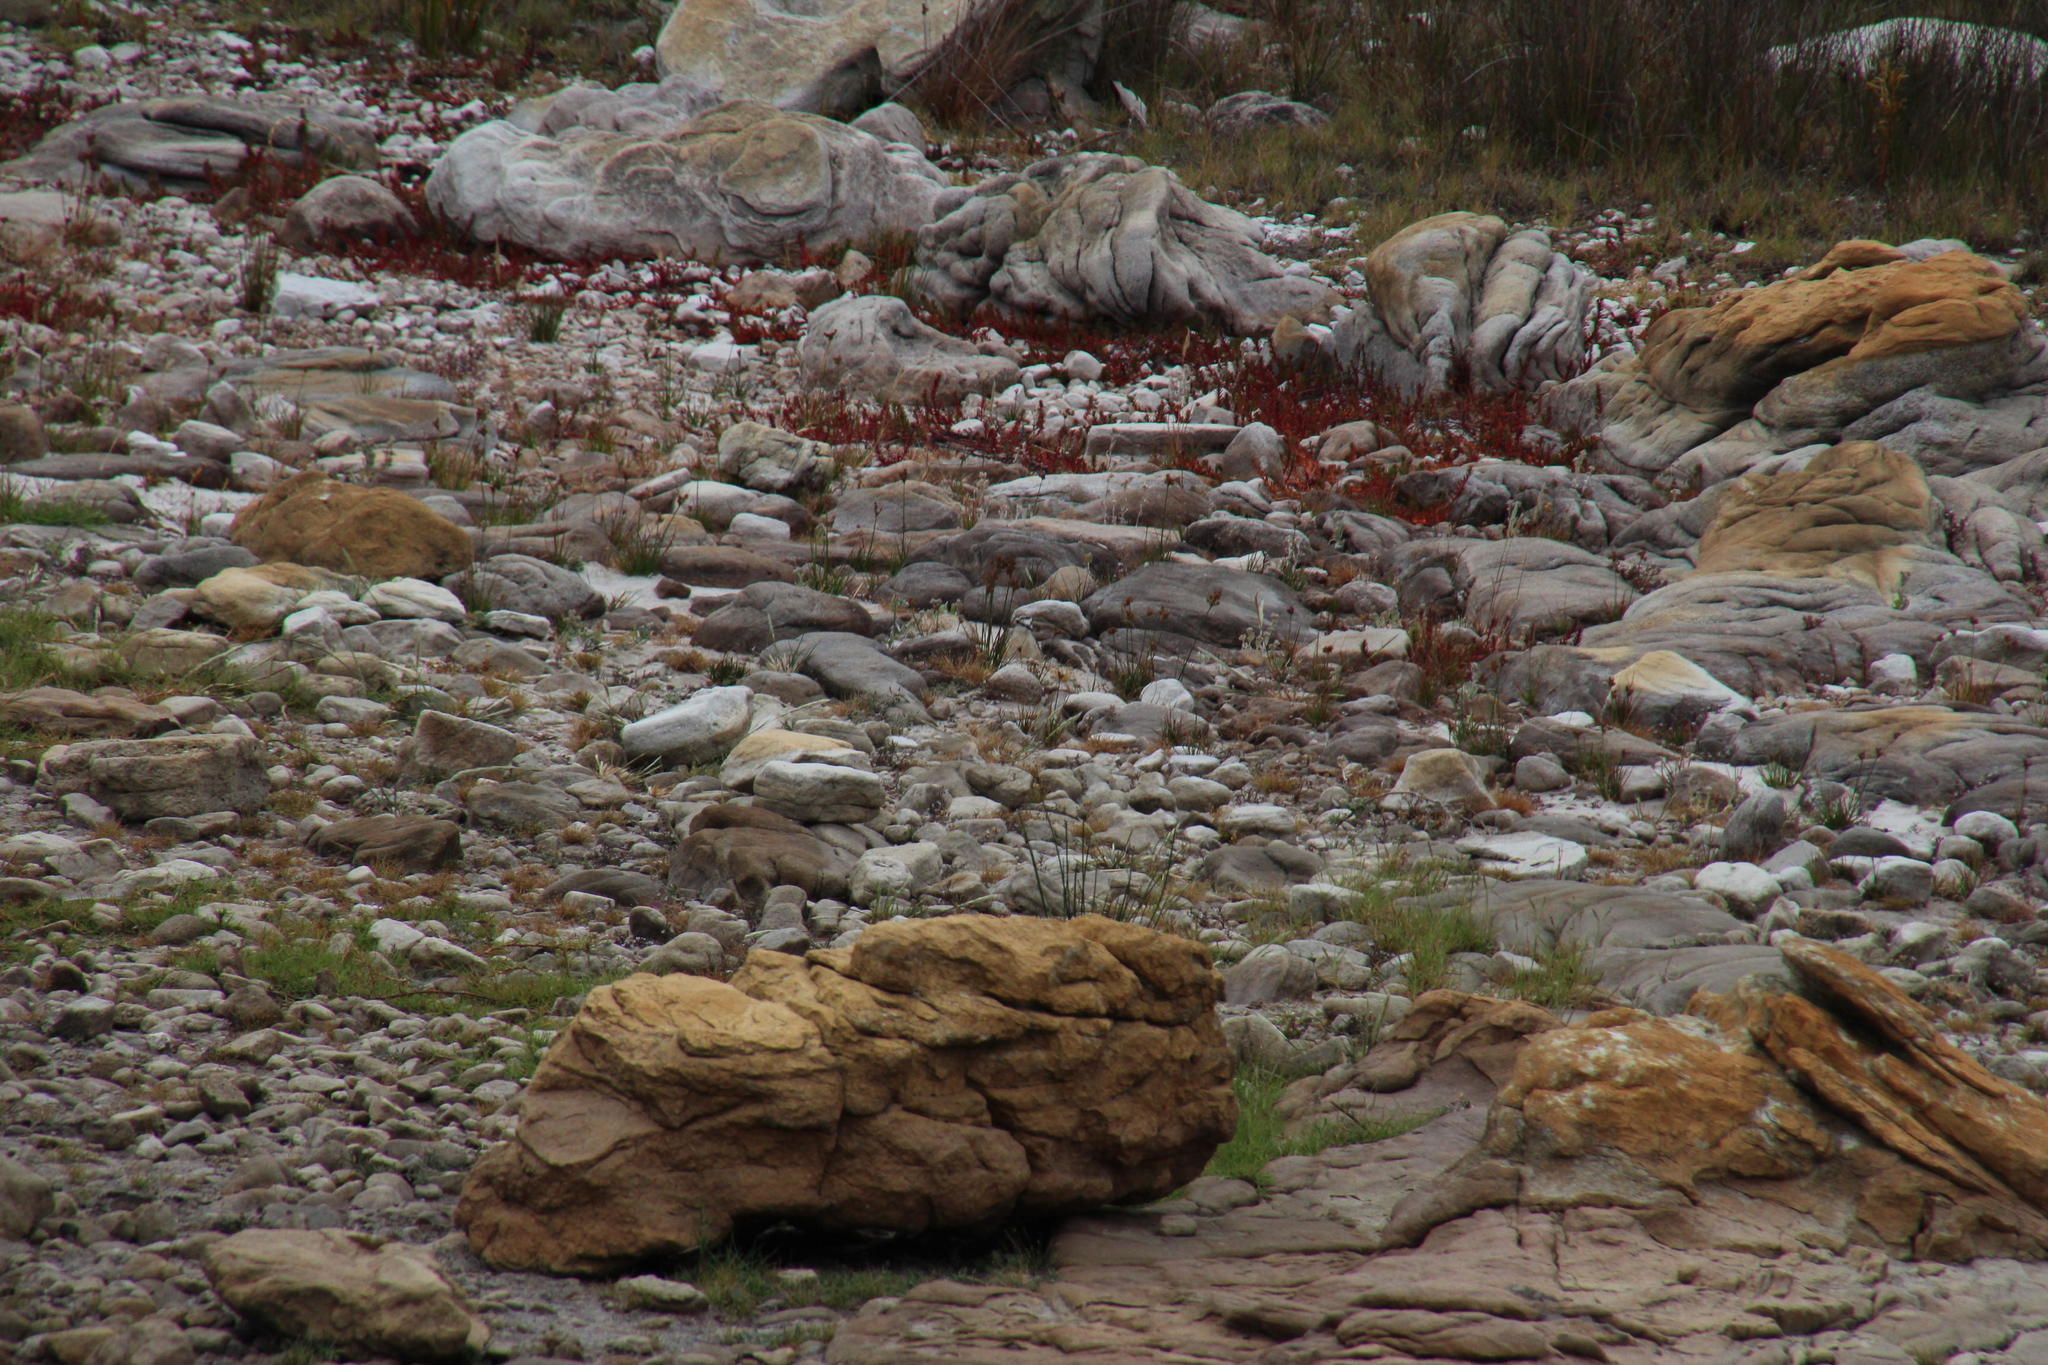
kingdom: Animalia
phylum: Chordata
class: Aves
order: Charadriiformes
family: Charadriidae
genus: Anarhynchus
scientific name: Anarhynchus
